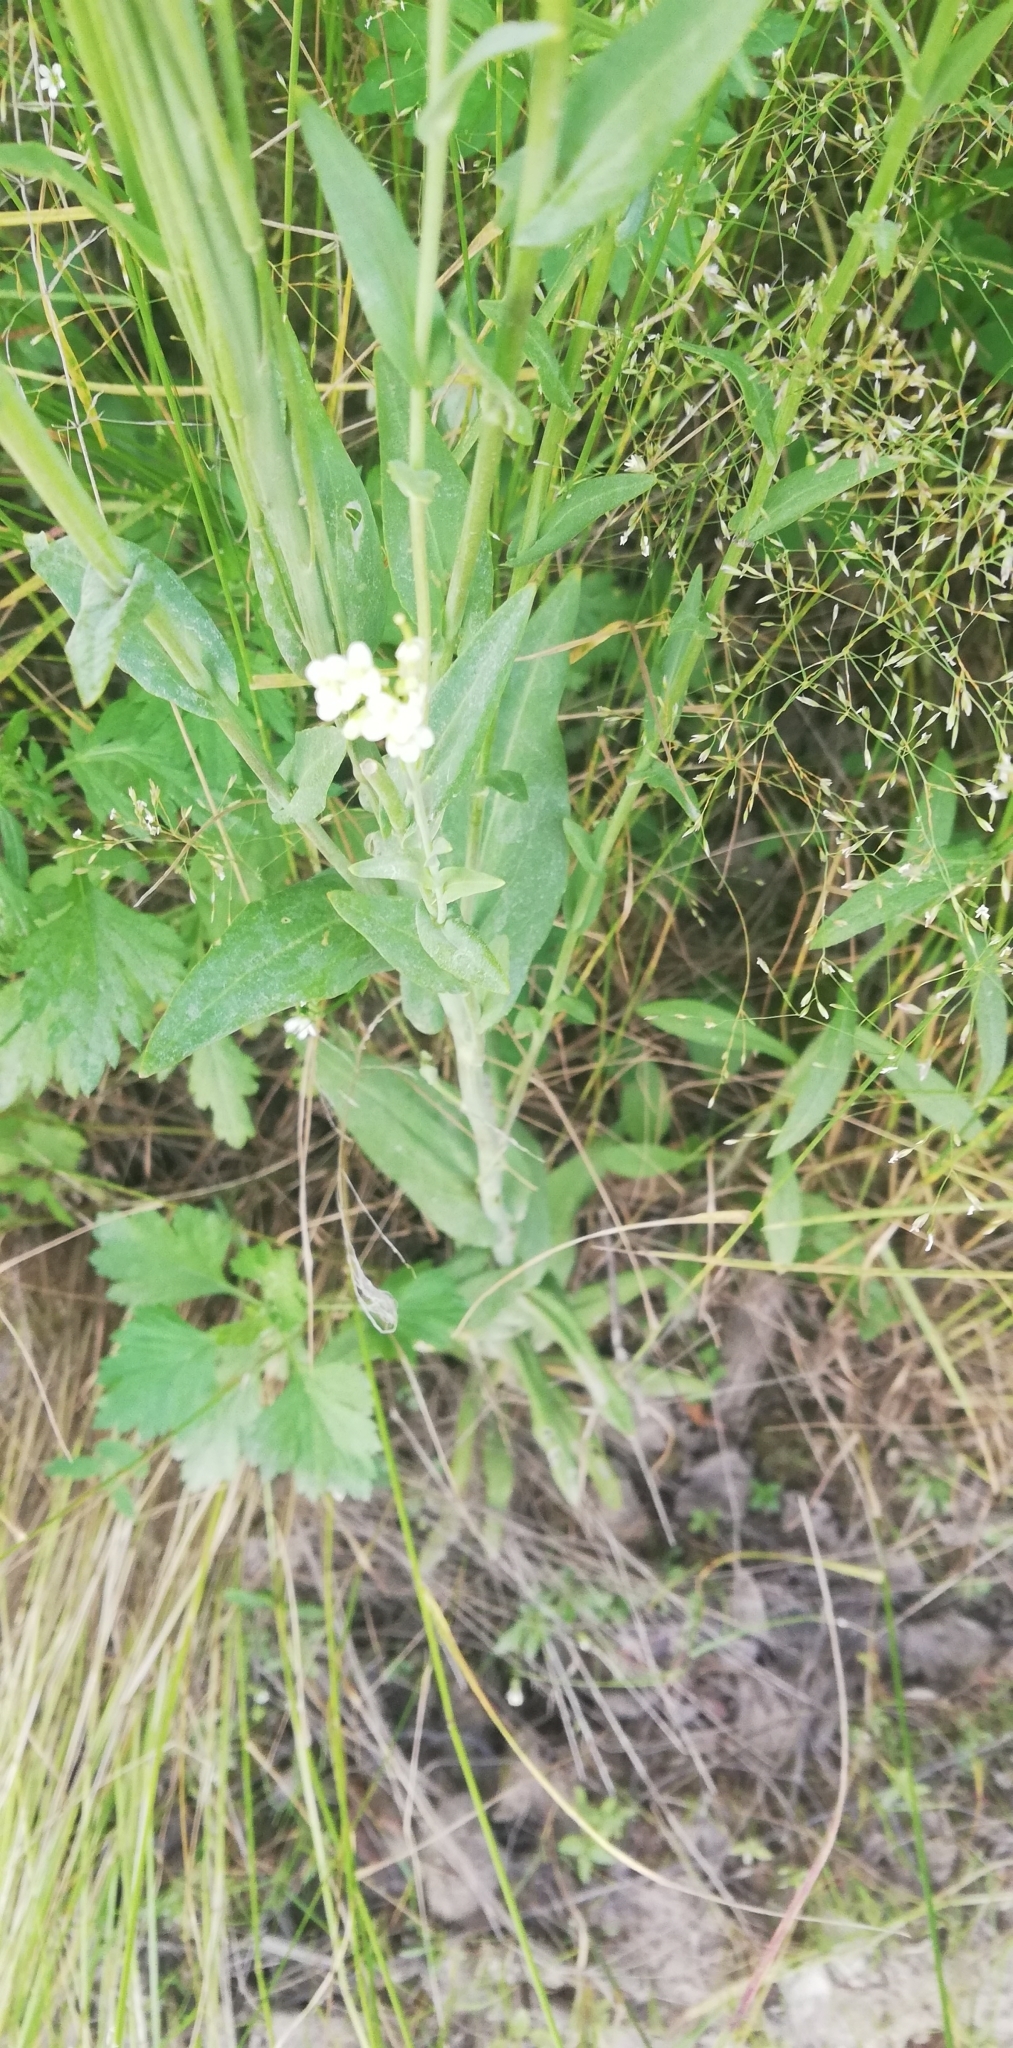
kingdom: Plantae
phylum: Tracheophyta
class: Magnoliopsida
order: Brassicales
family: Brassicaceae
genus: Turritis
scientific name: Turritis glabra
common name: Tower rockcress
